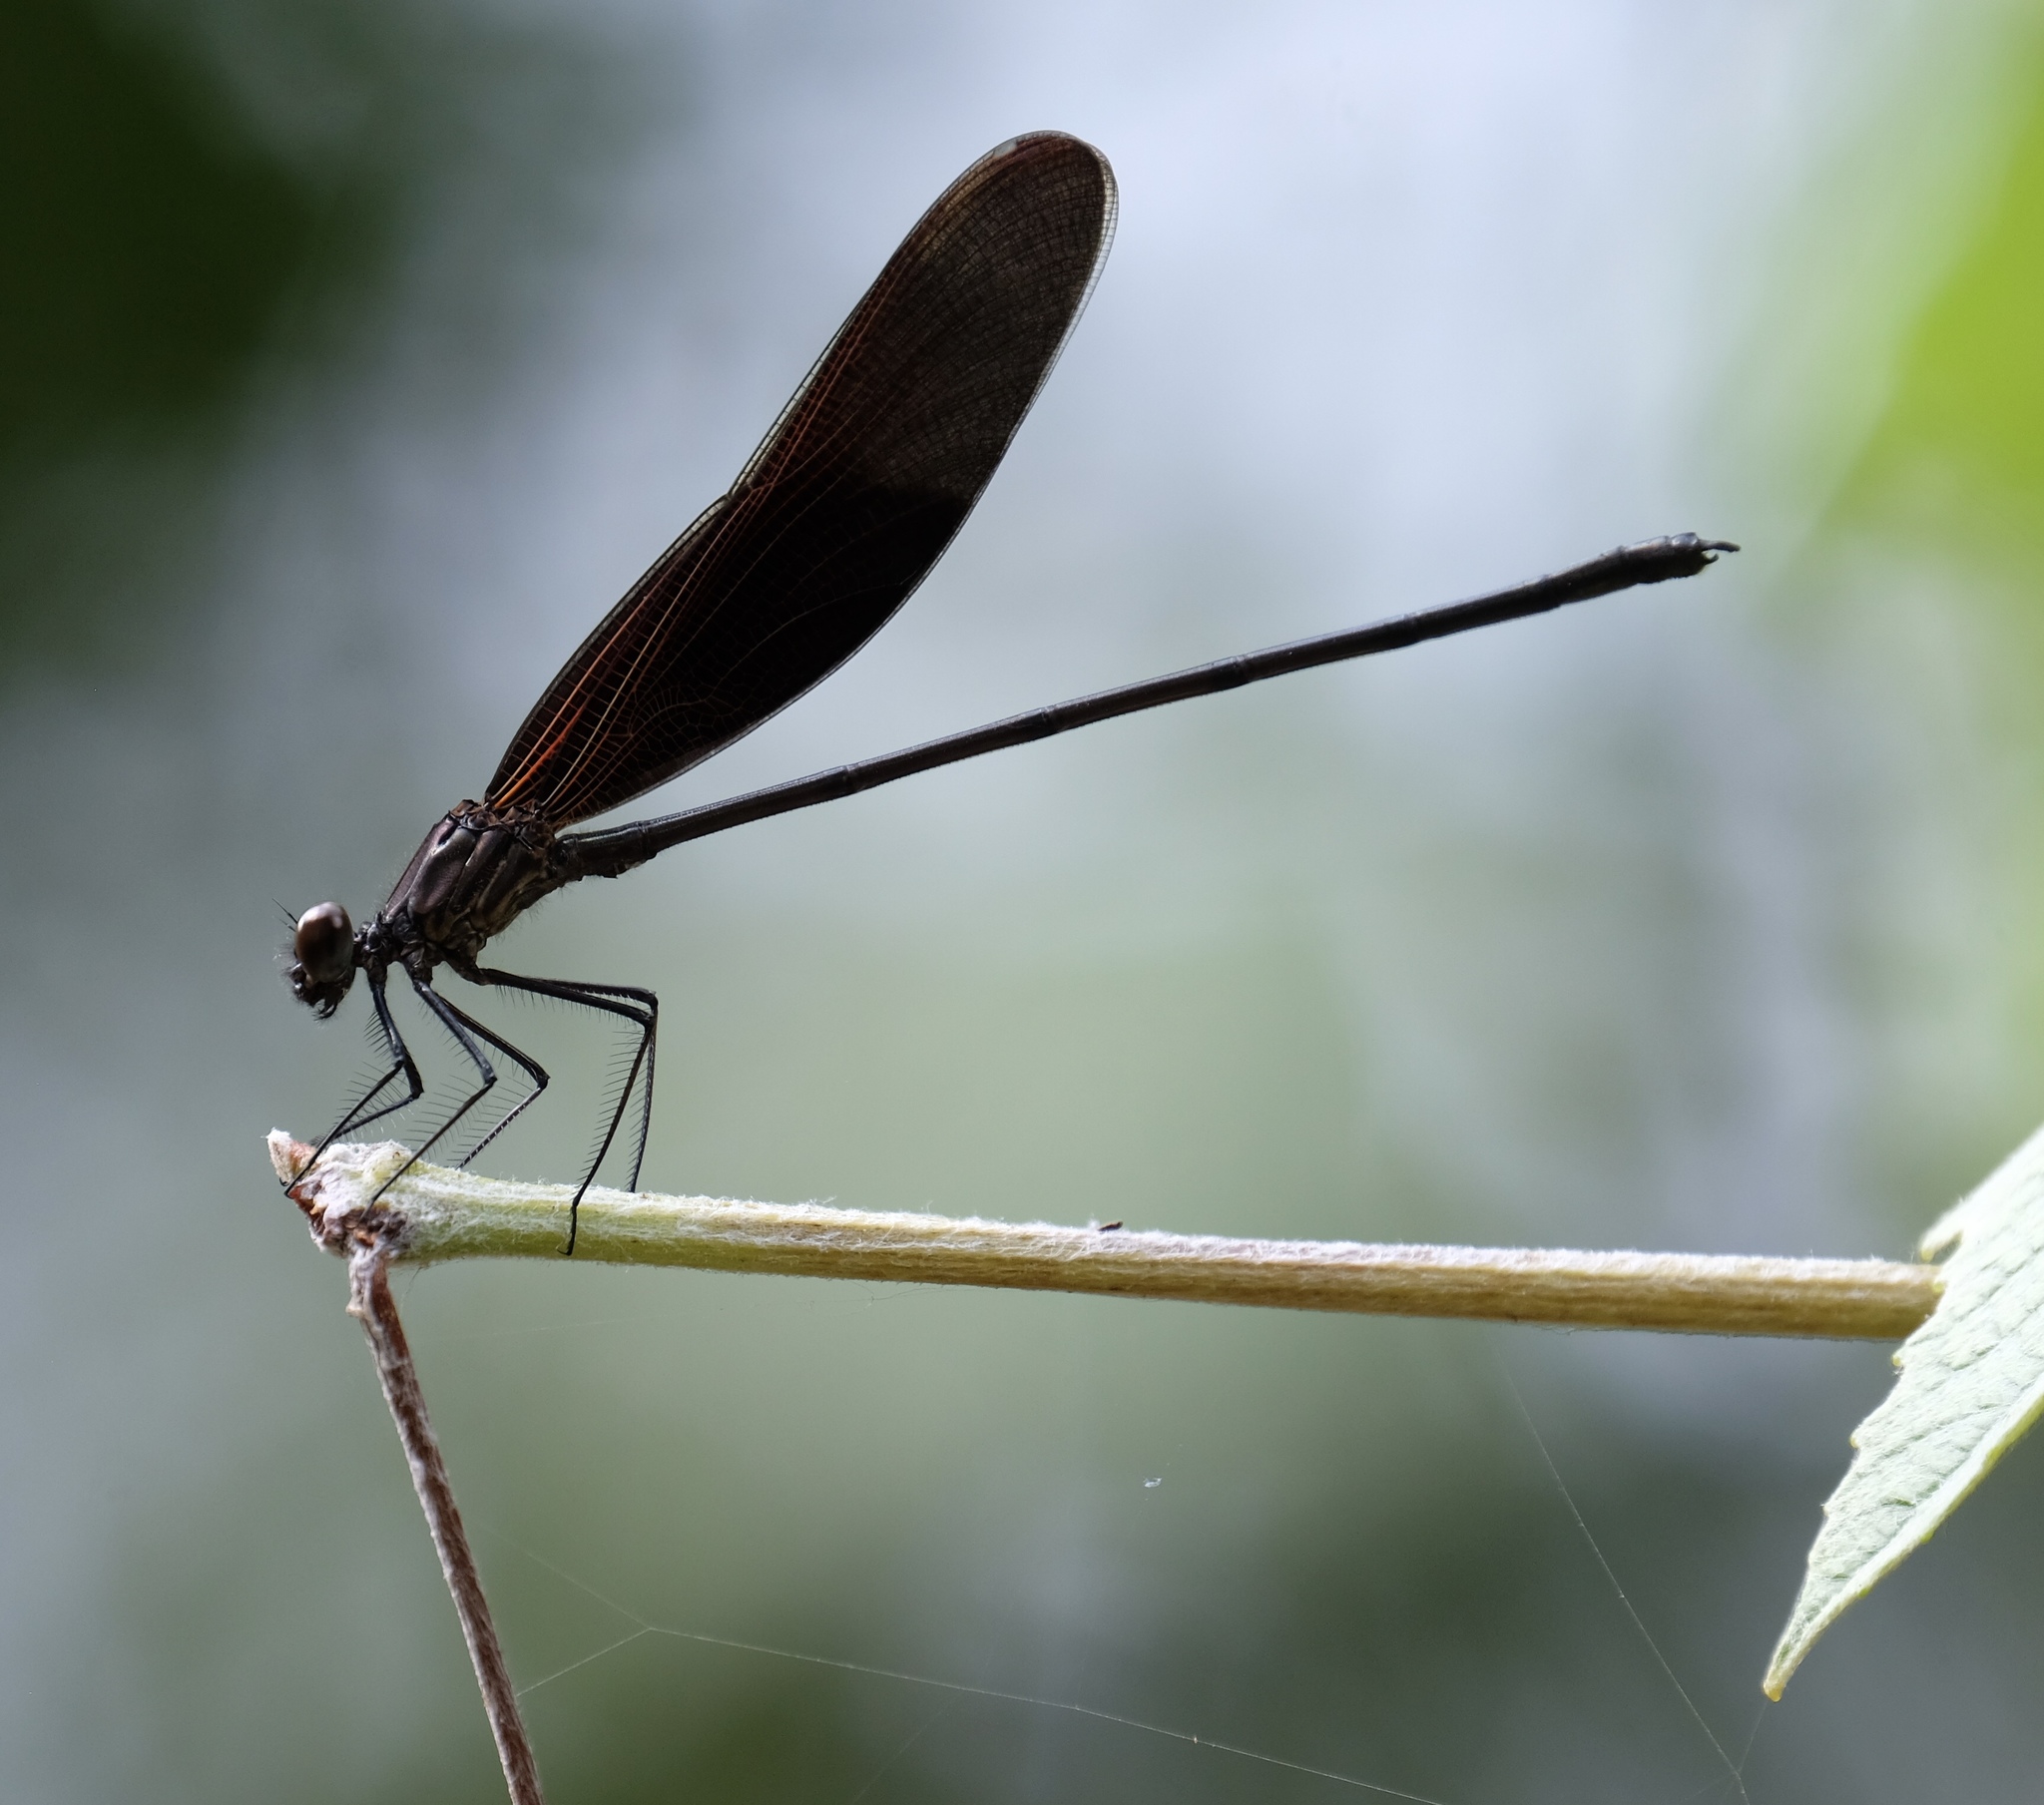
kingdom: Animalia
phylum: Arthropoda
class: Insecta
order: Odonata
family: Calopterygidae
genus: Hetaerina
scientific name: Hetaerina titia
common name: Smoky rubyspot
